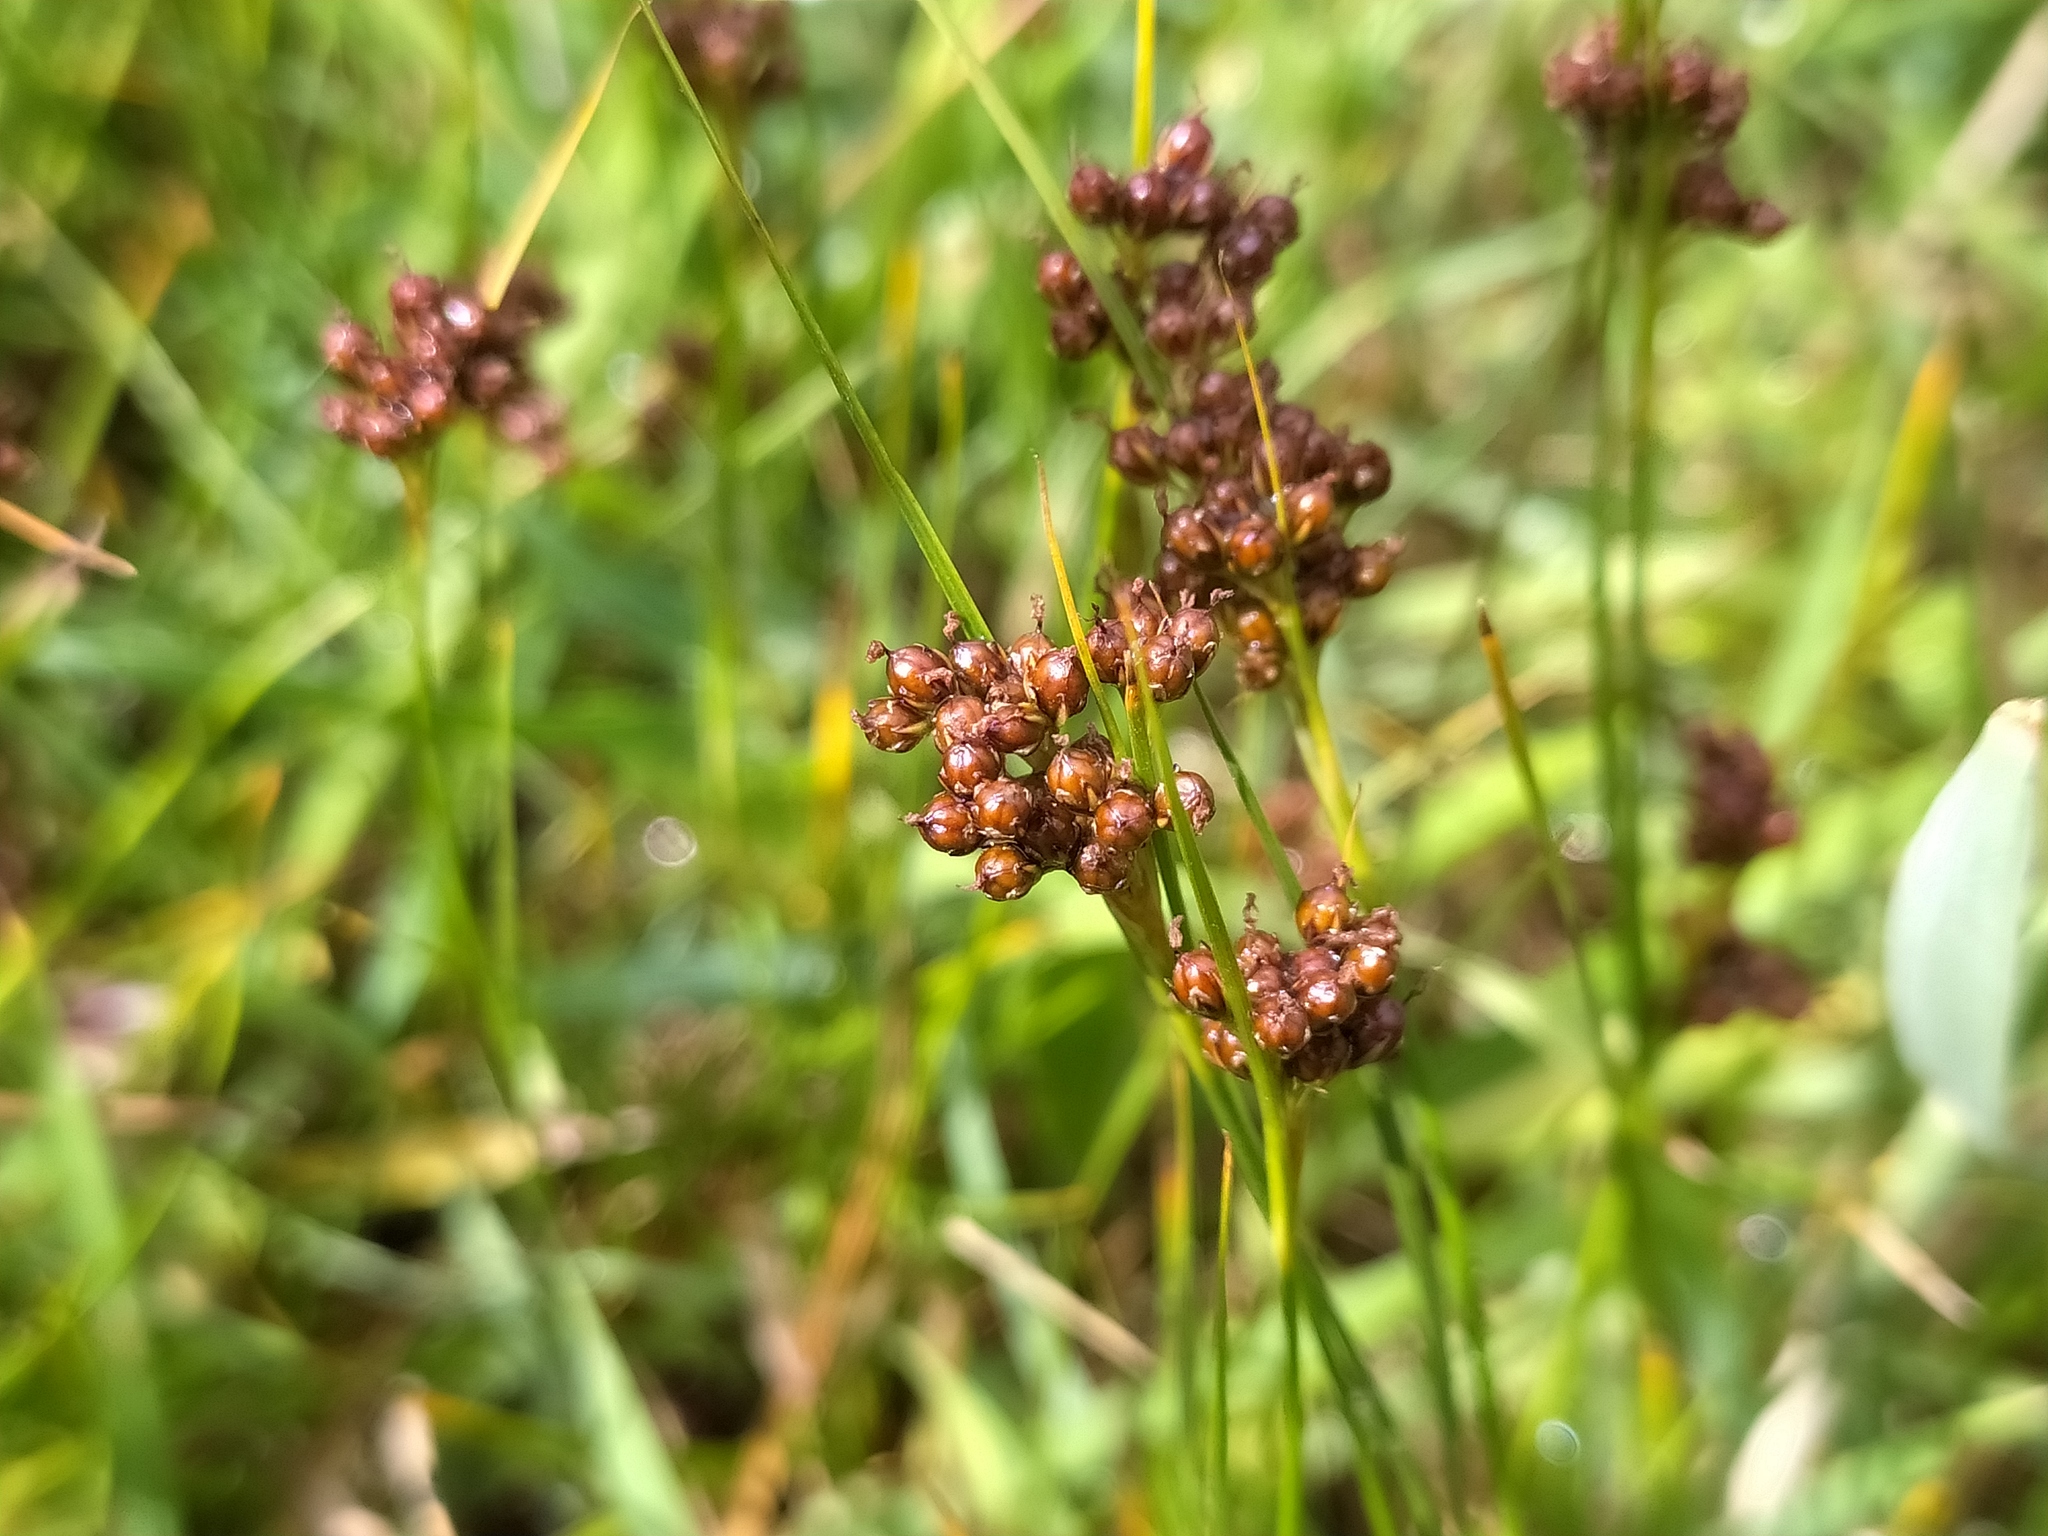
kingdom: Plantae
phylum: Tracheophyta
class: Liliopsida
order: Poales
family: Juncaceae
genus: Juncus
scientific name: Juncus compressus
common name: Round-fruited rush
